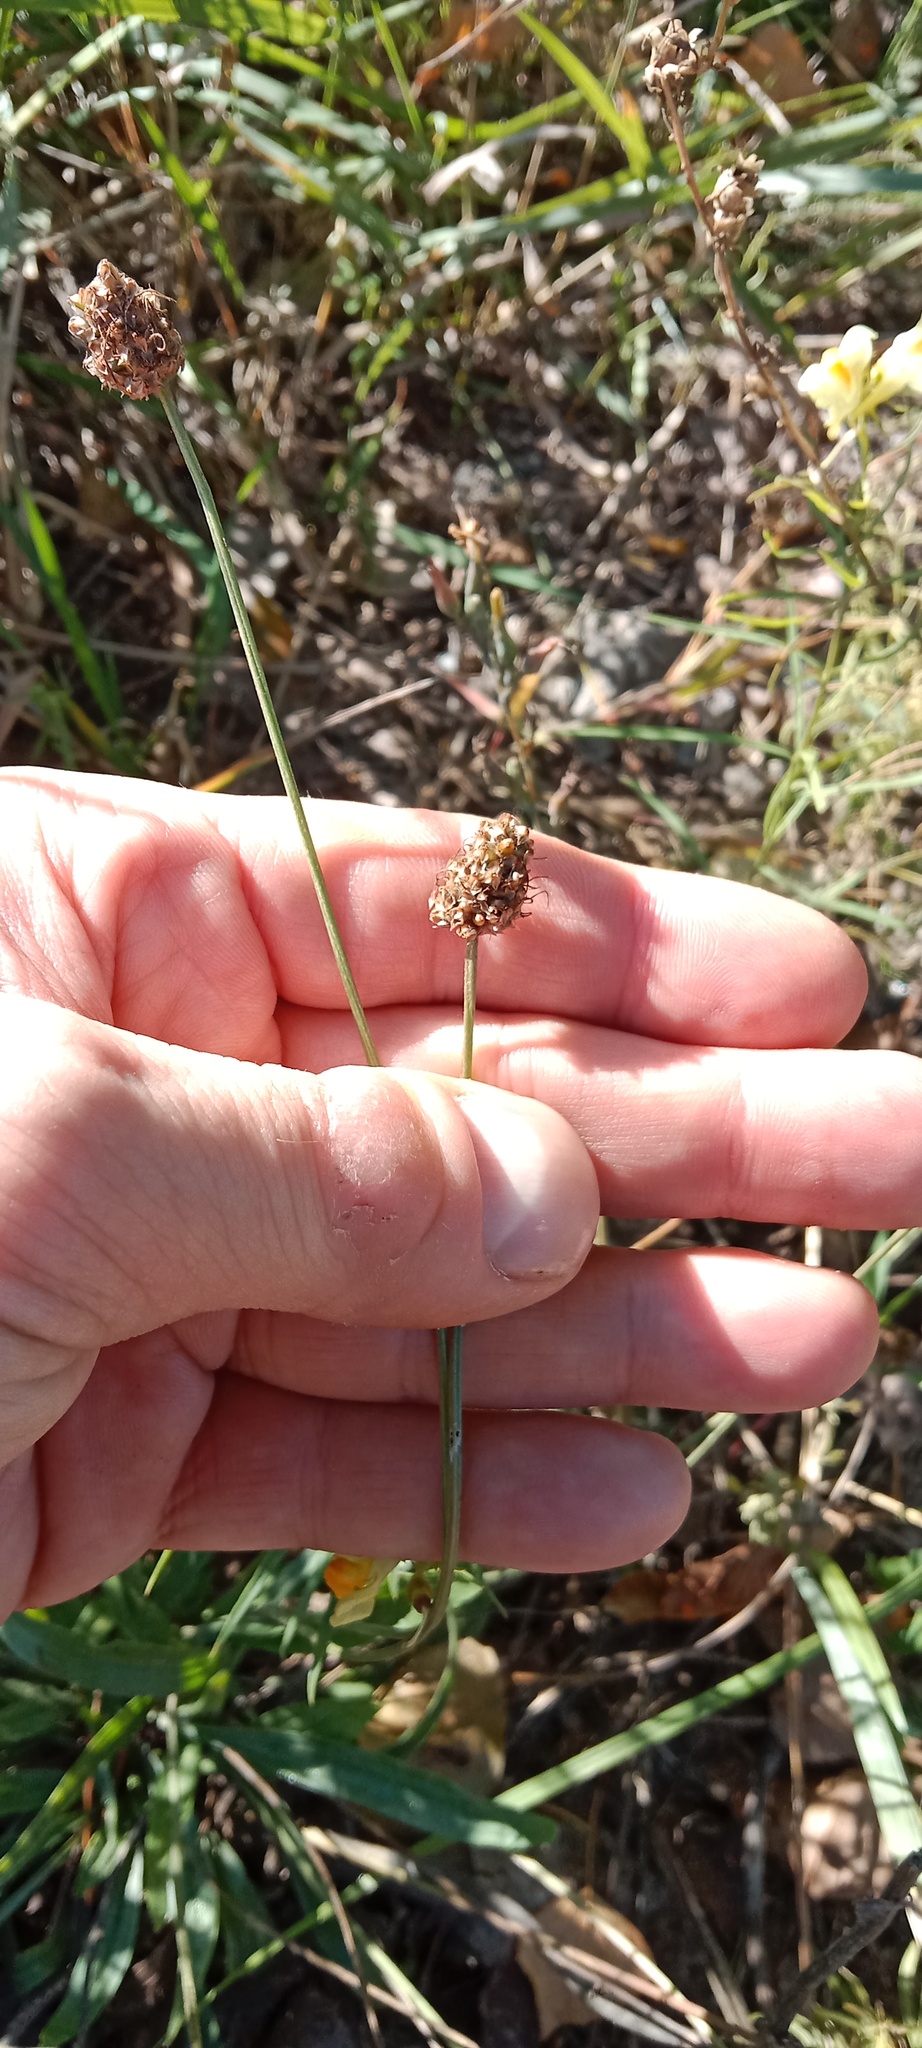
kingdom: Plantae
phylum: Tracheophyta
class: Magnoliopsida
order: Lamiales
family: Plantaginaceae
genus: Plantago
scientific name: Plantago lanceolata
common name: Ribwort plantain
